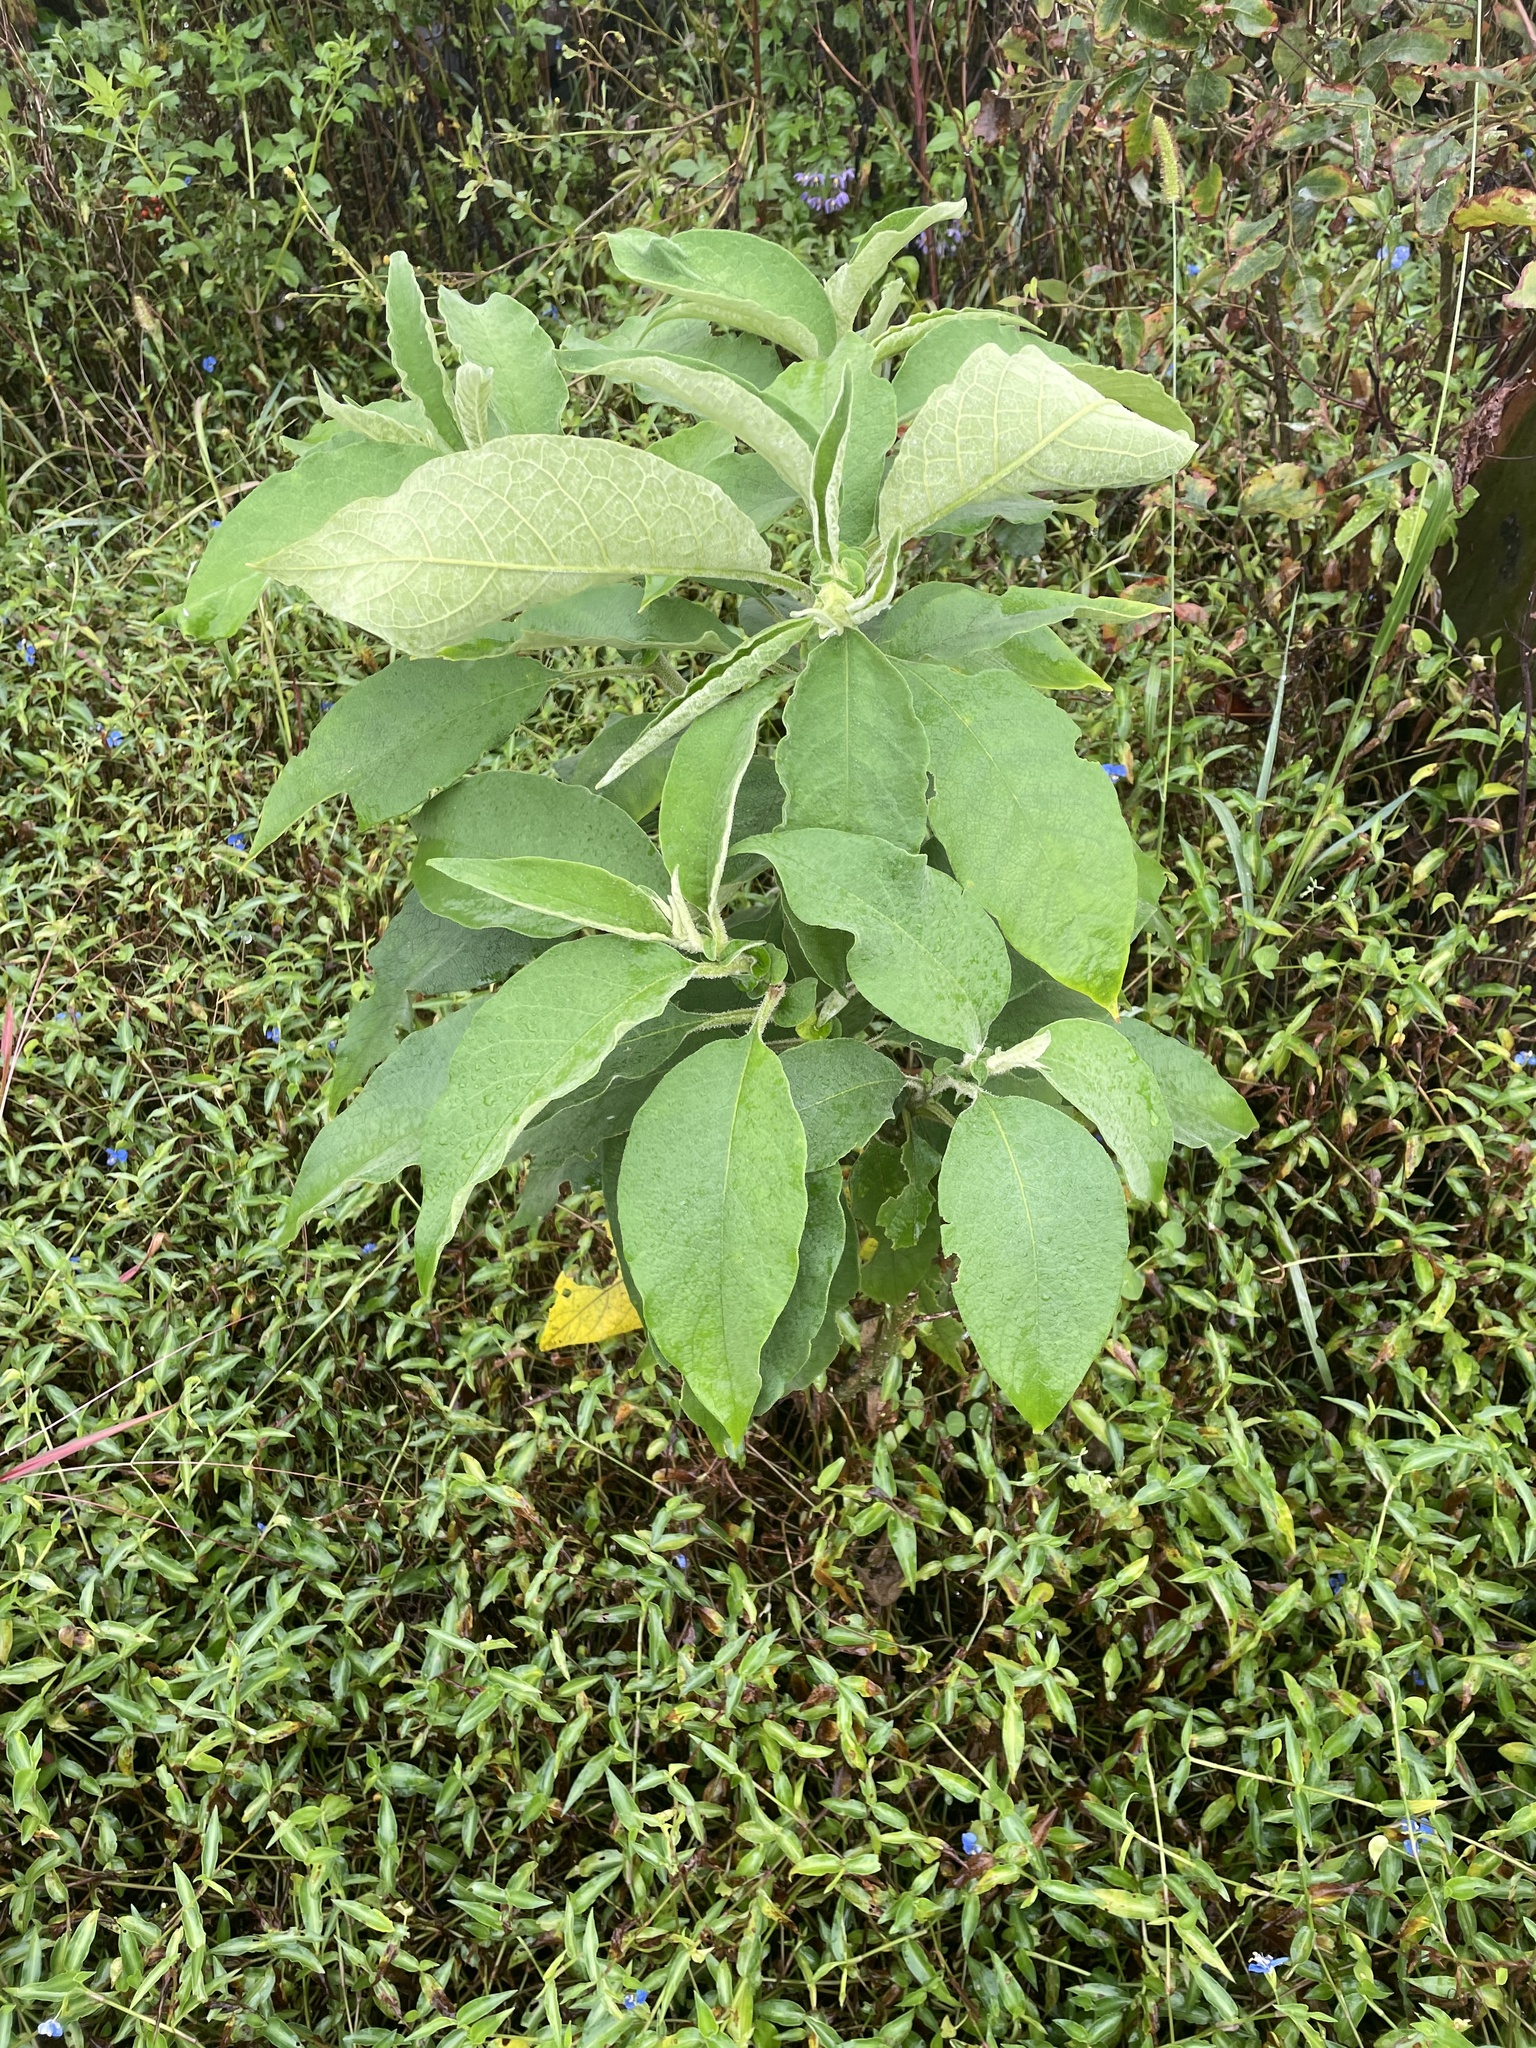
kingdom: Plantae
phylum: Tracheophyta
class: Magnoliopsida
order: Solanales
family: Solanaceae
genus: Solanum
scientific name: Solanum mauritianum
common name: Earleaf nightshade
